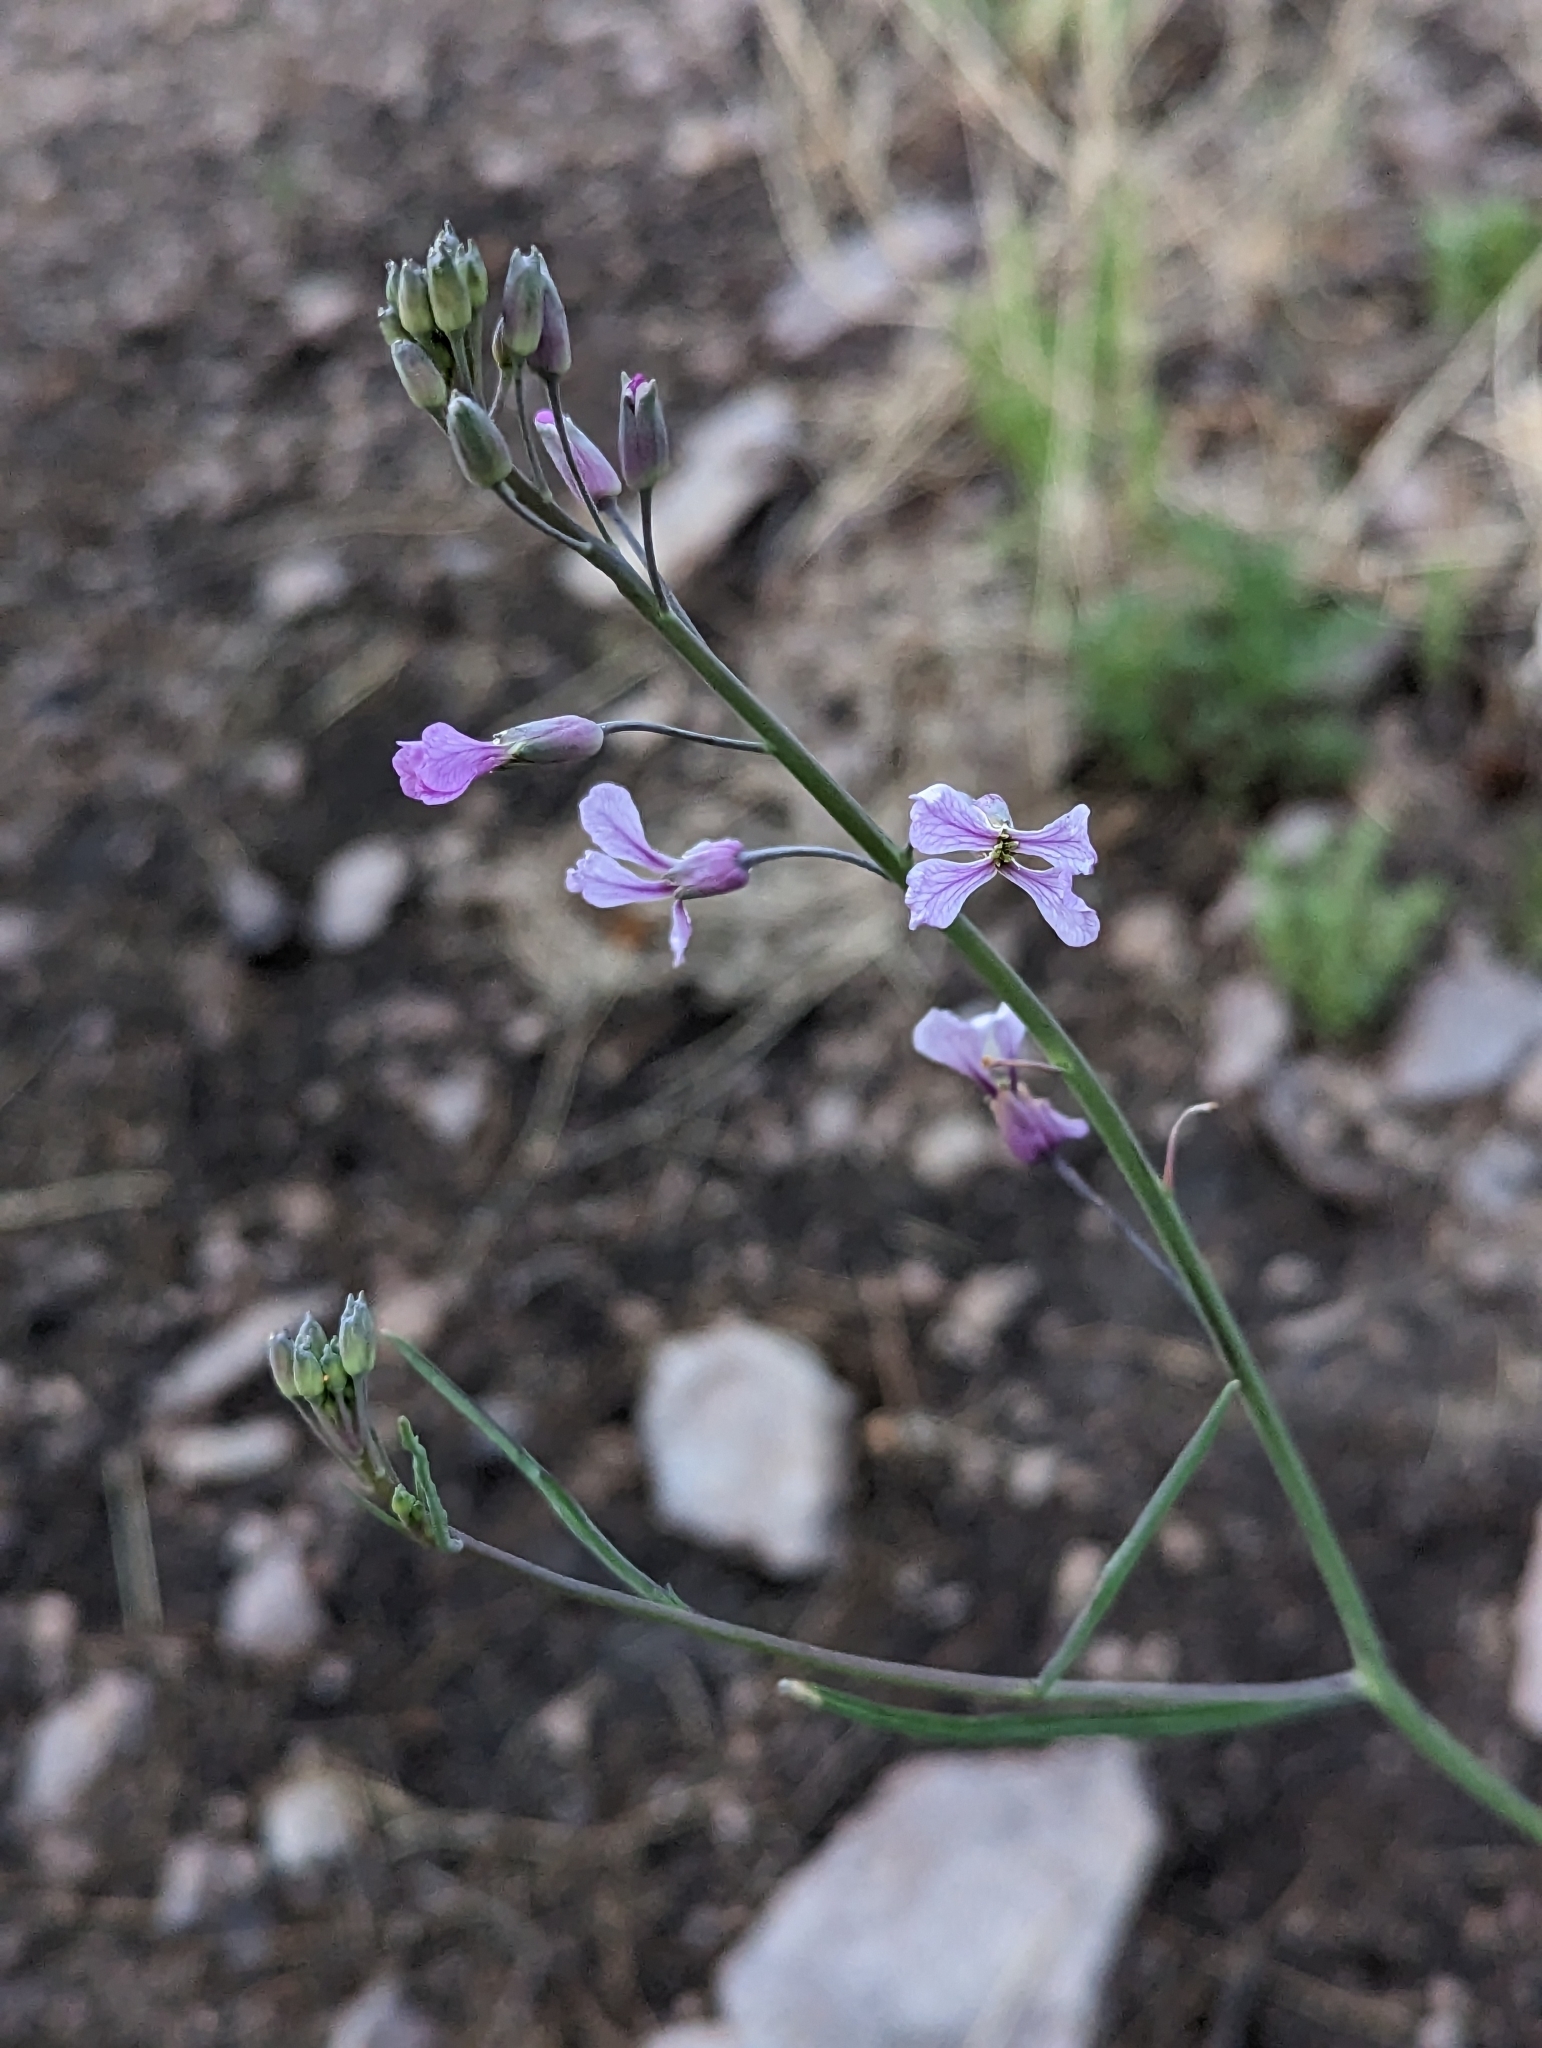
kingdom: Plantae
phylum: Tracheophyta
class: Magnoliopsida
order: Brassicales
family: Brassicaceae
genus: Hesperidanthus
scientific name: Hesperidanthus linearifolius
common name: Slim-leaf plains mustard
